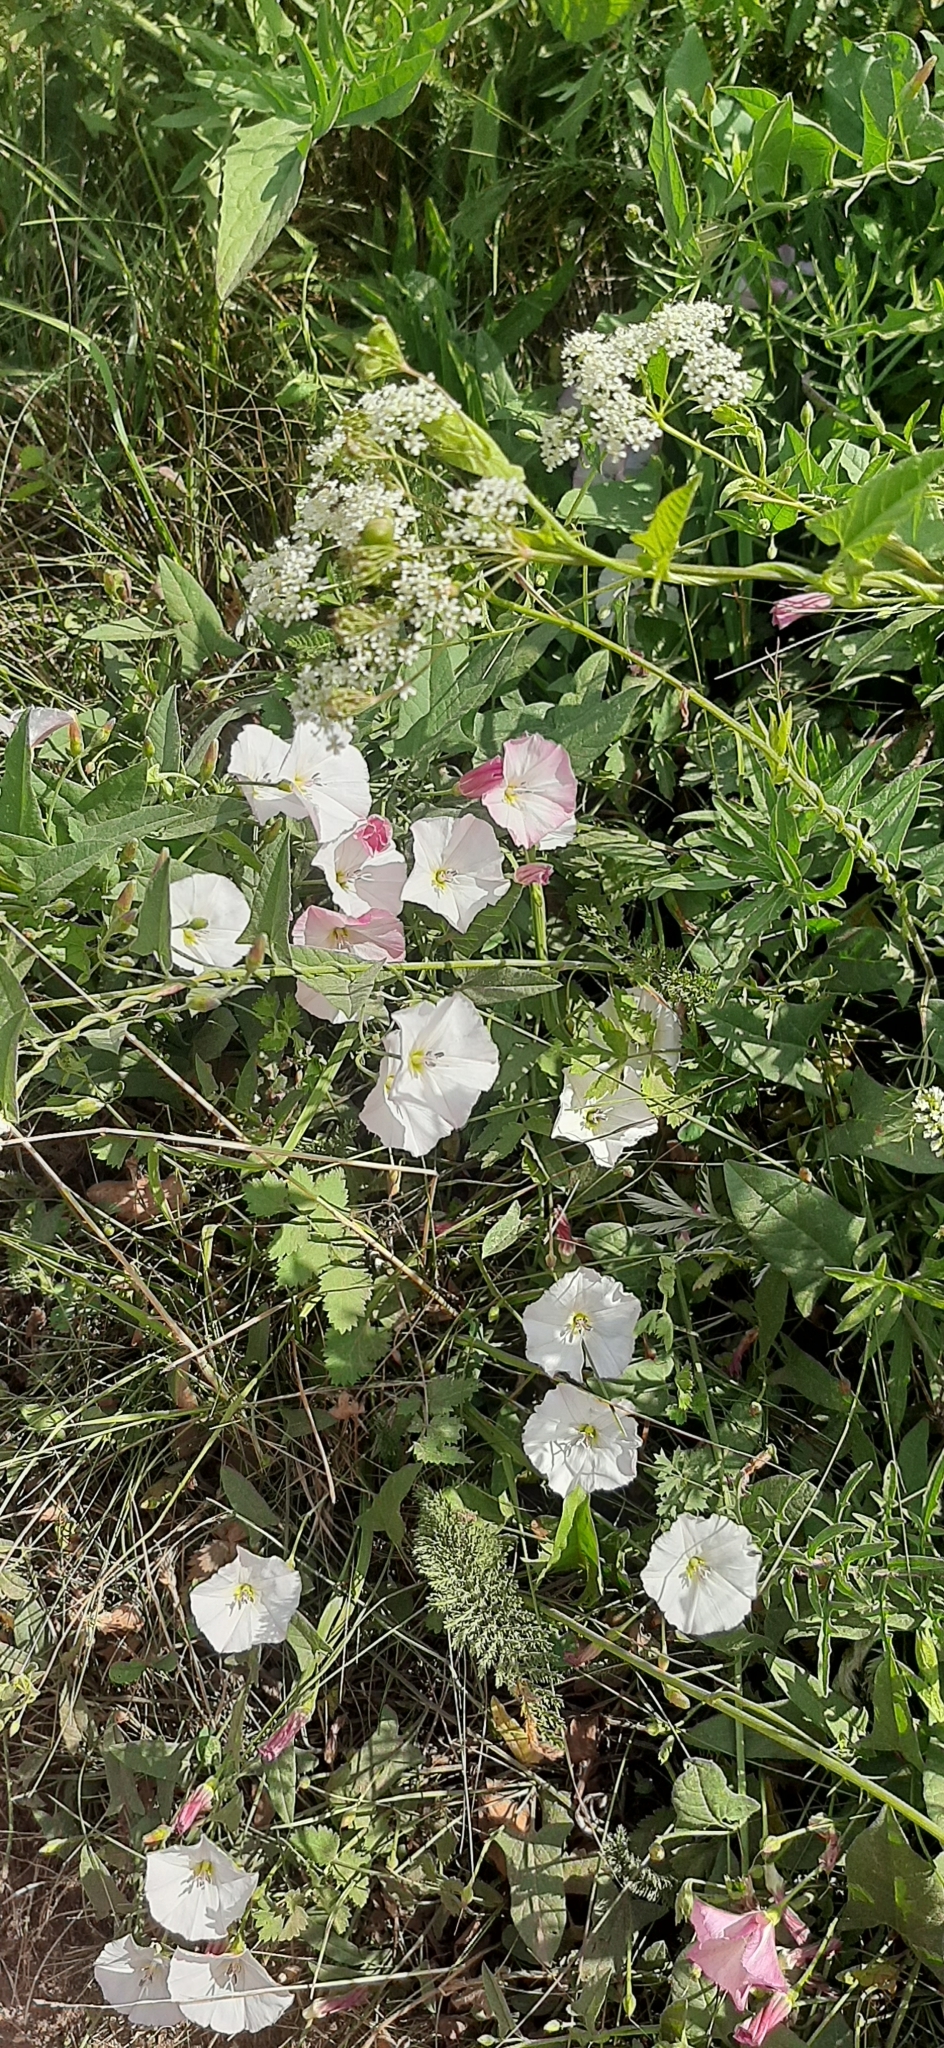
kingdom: Plantae
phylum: Tracheophyta
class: Magnoliopsida
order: Solanales
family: Convolvulaceae
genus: Convolvulus
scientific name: Convolvulus arvensis
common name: Field bindweed
